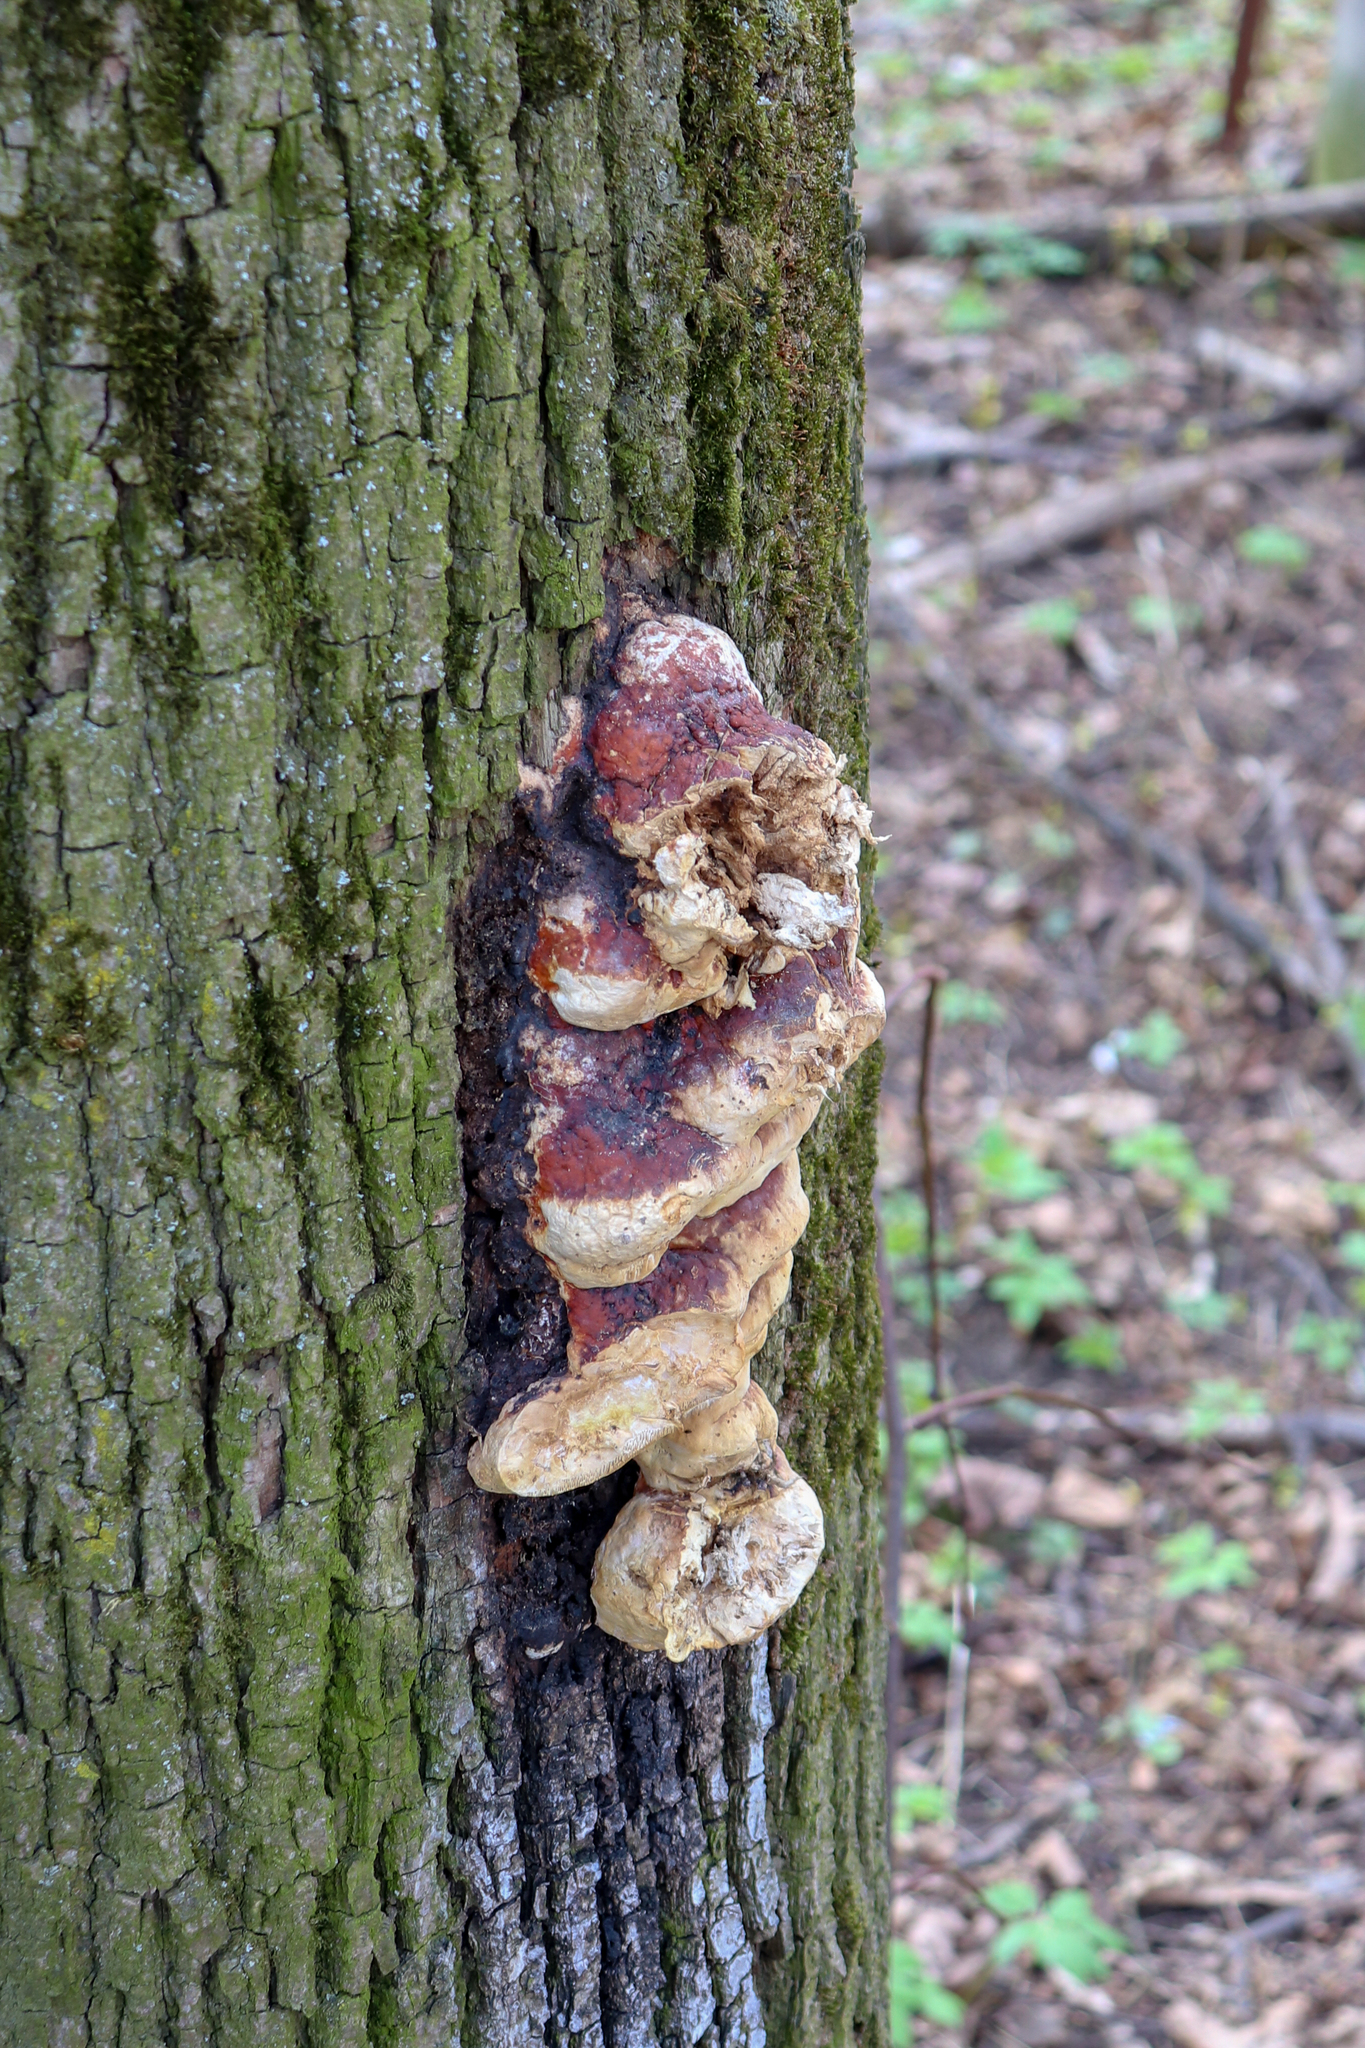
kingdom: Fungi
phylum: Basidiomycota
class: Agaricomycetes
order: Polyporales
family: Fomitopsidaceae
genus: Fomitopsis
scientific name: Fomitopsis pinicola
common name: Red-belted bracket
